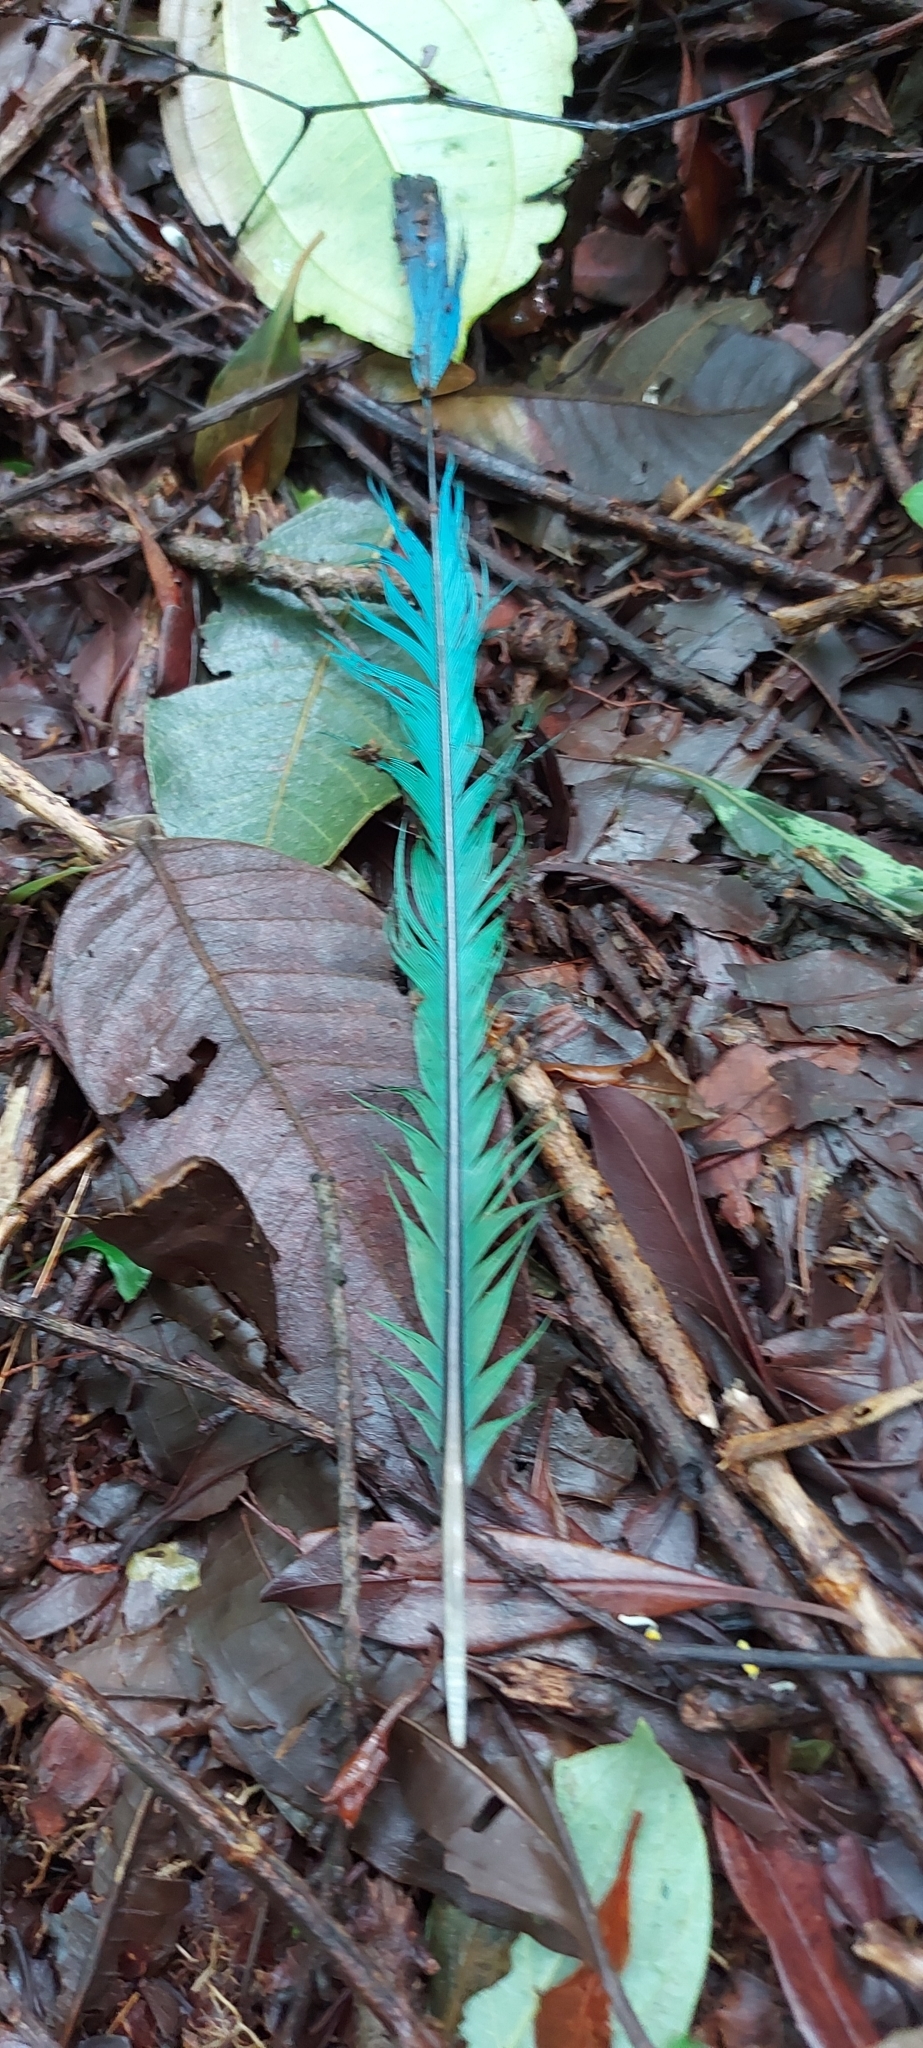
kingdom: Animalia
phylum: Chordata
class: Aves
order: Coraciiformes
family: Momotidae
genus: Momotus
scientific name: Momotus lessonii
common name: Lesson's motmot
